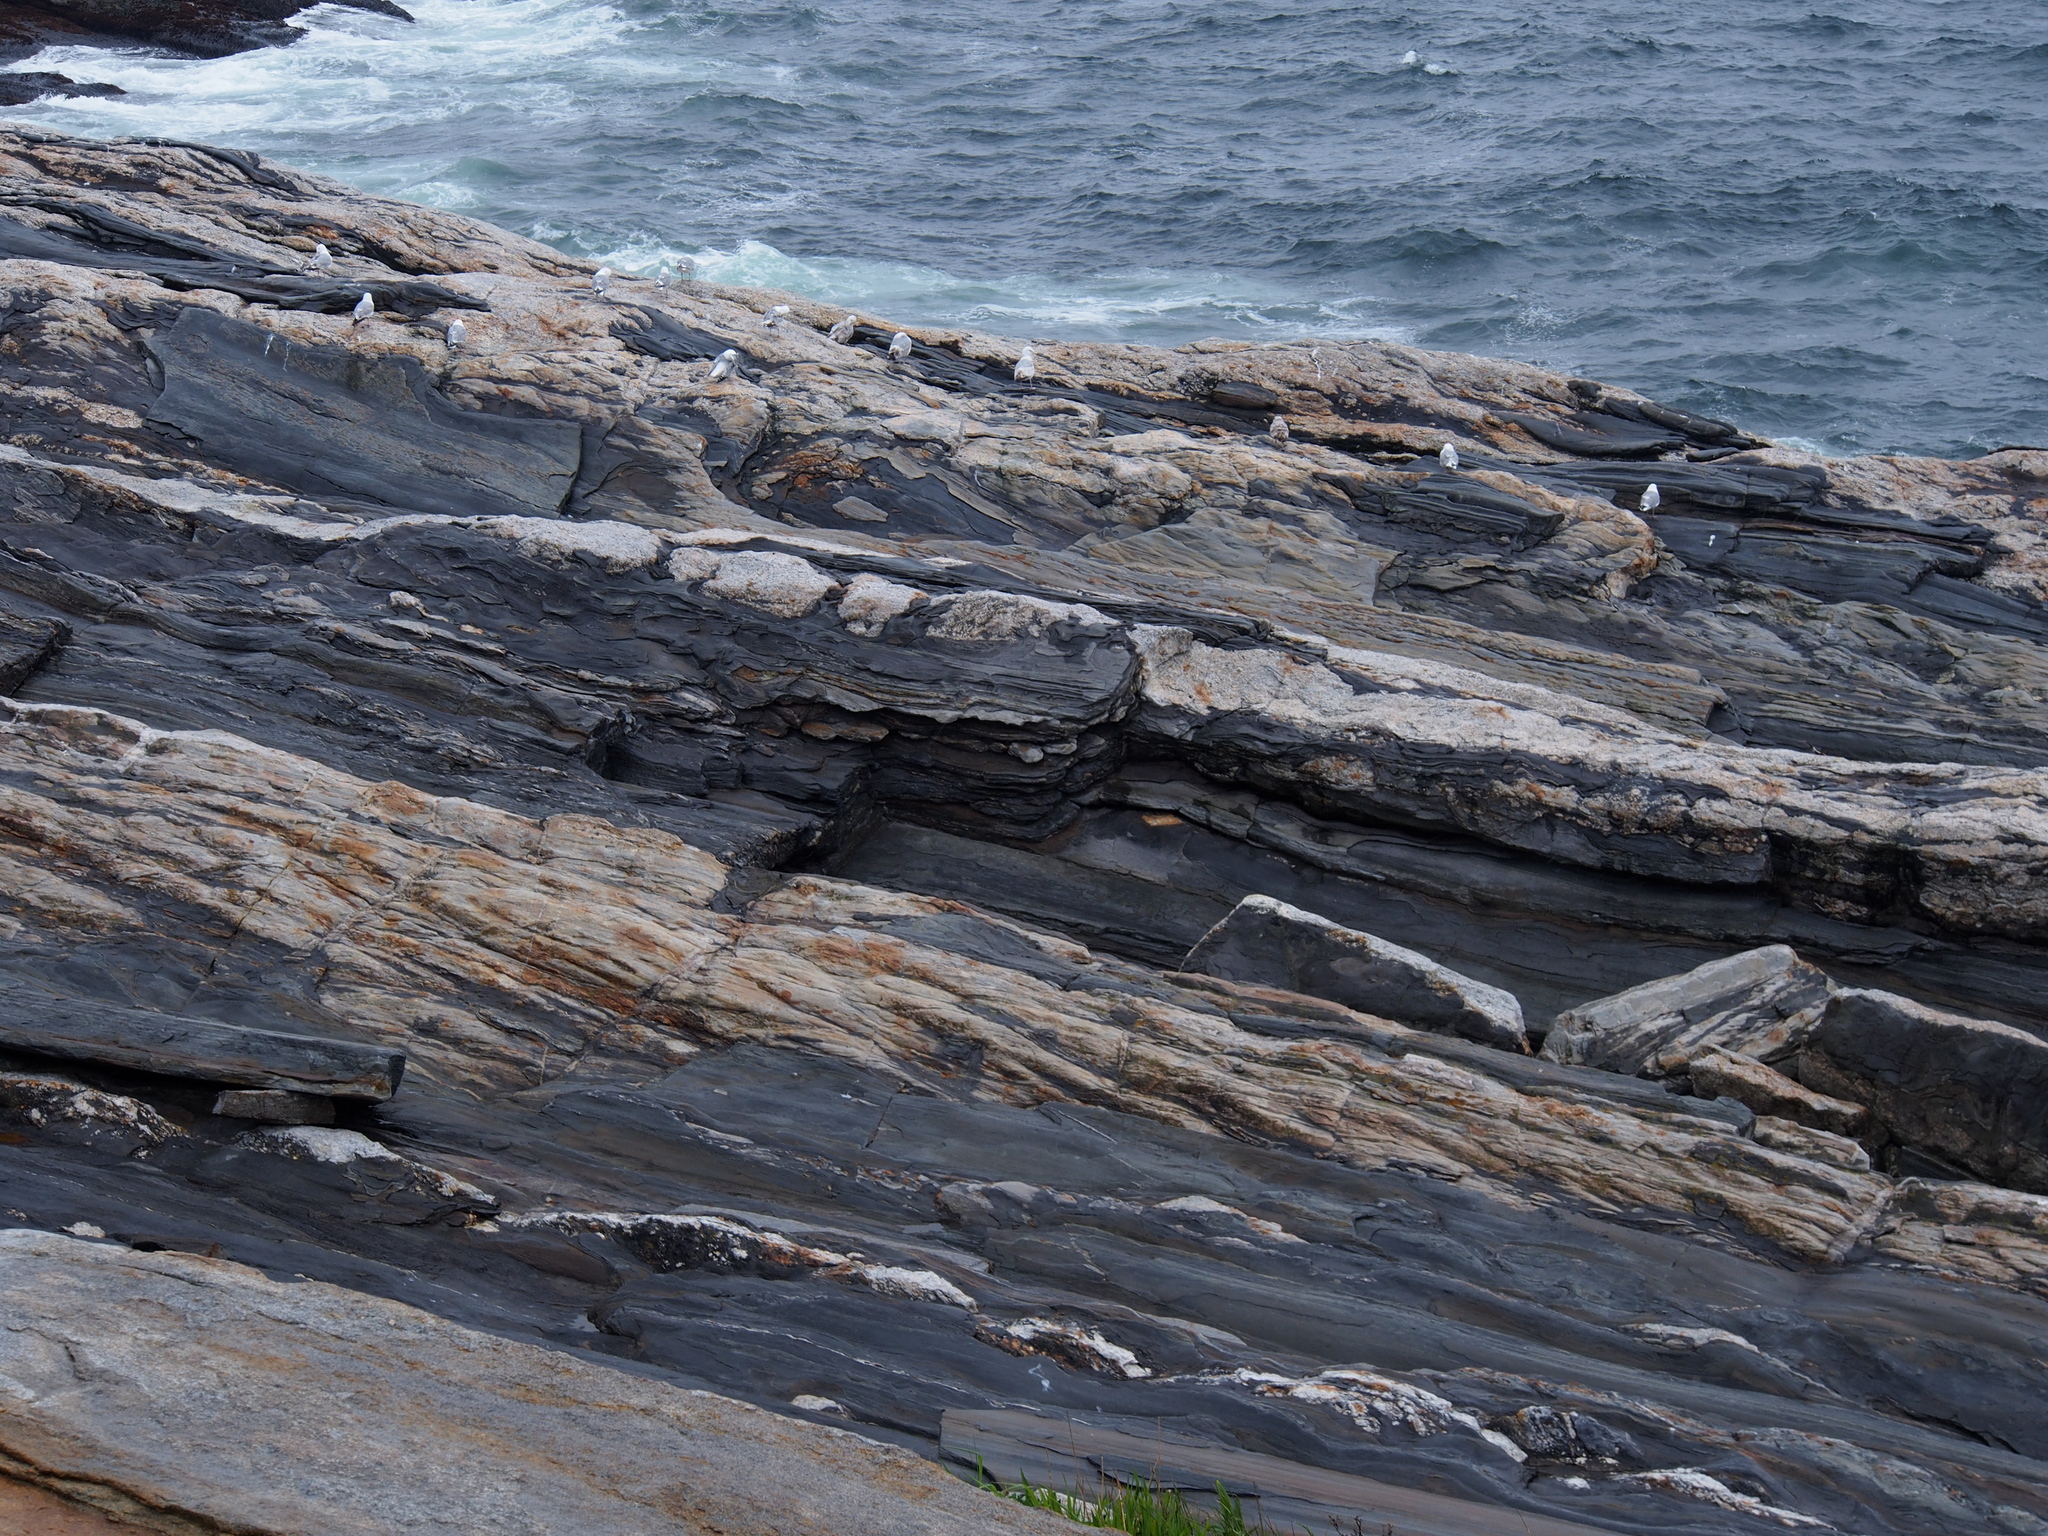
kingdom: Animalia
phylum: Chordata
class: Aves
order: Charadriiformes
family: Laridae
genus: Larus
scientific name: Larus argentatus
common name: Herring gull
